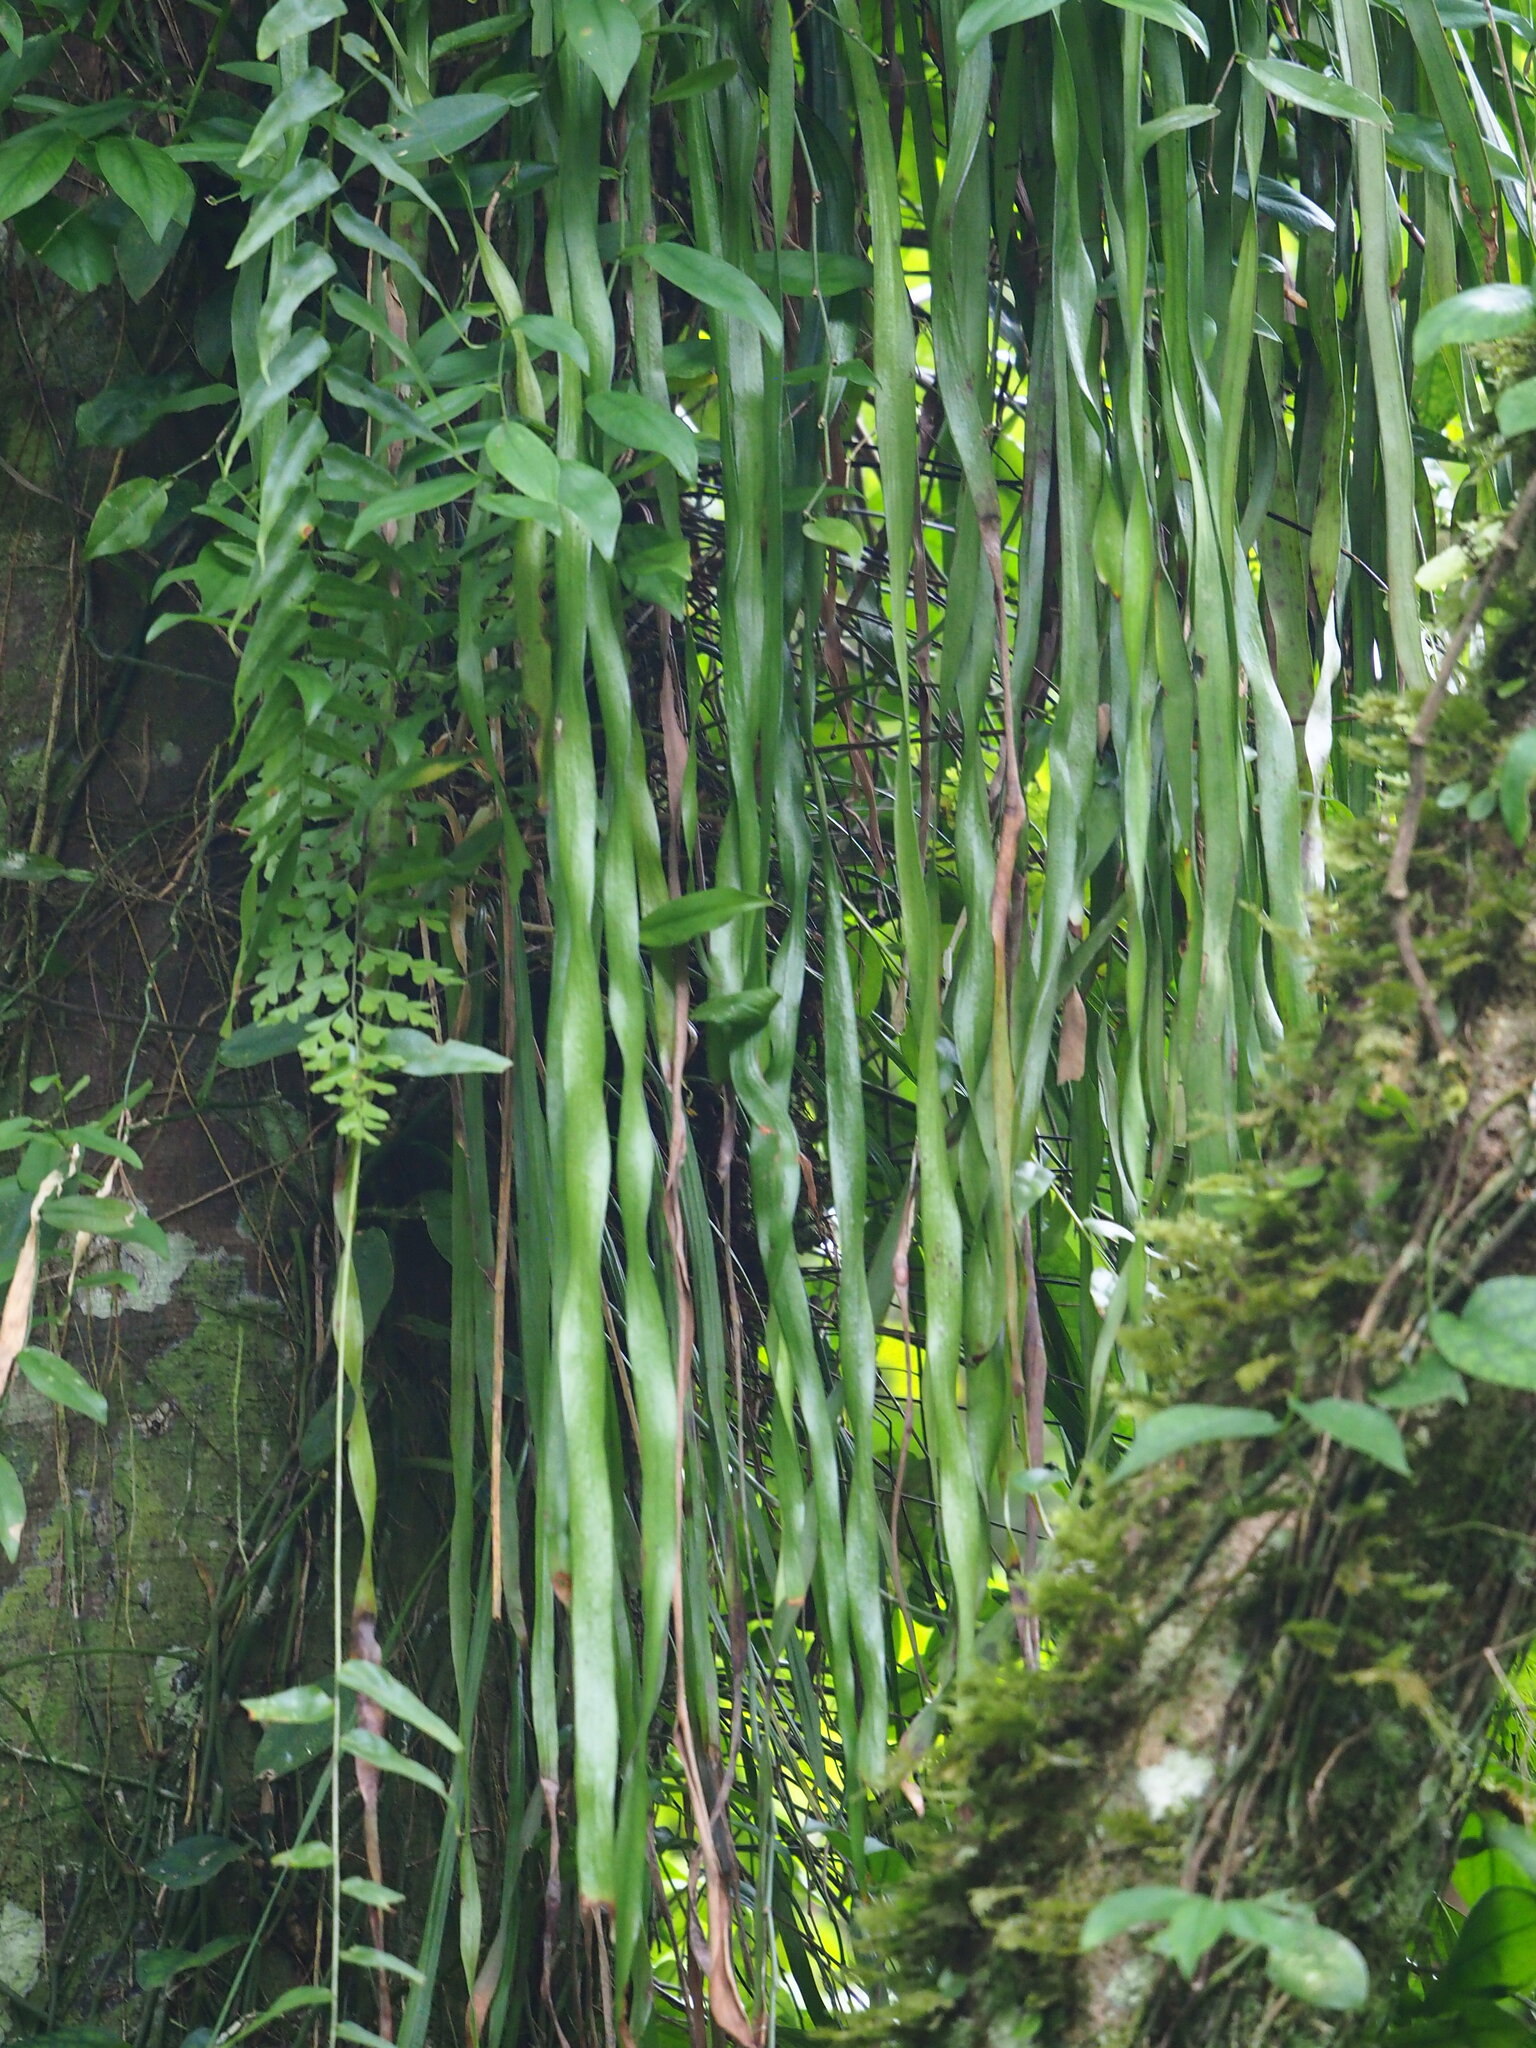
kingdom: Plantae
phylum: Tracheophyta
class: Polypodiopsida
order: Ophioglossales
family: Ophioglossaceae
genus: Ophioderma
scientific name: Ophioderma pendulum
